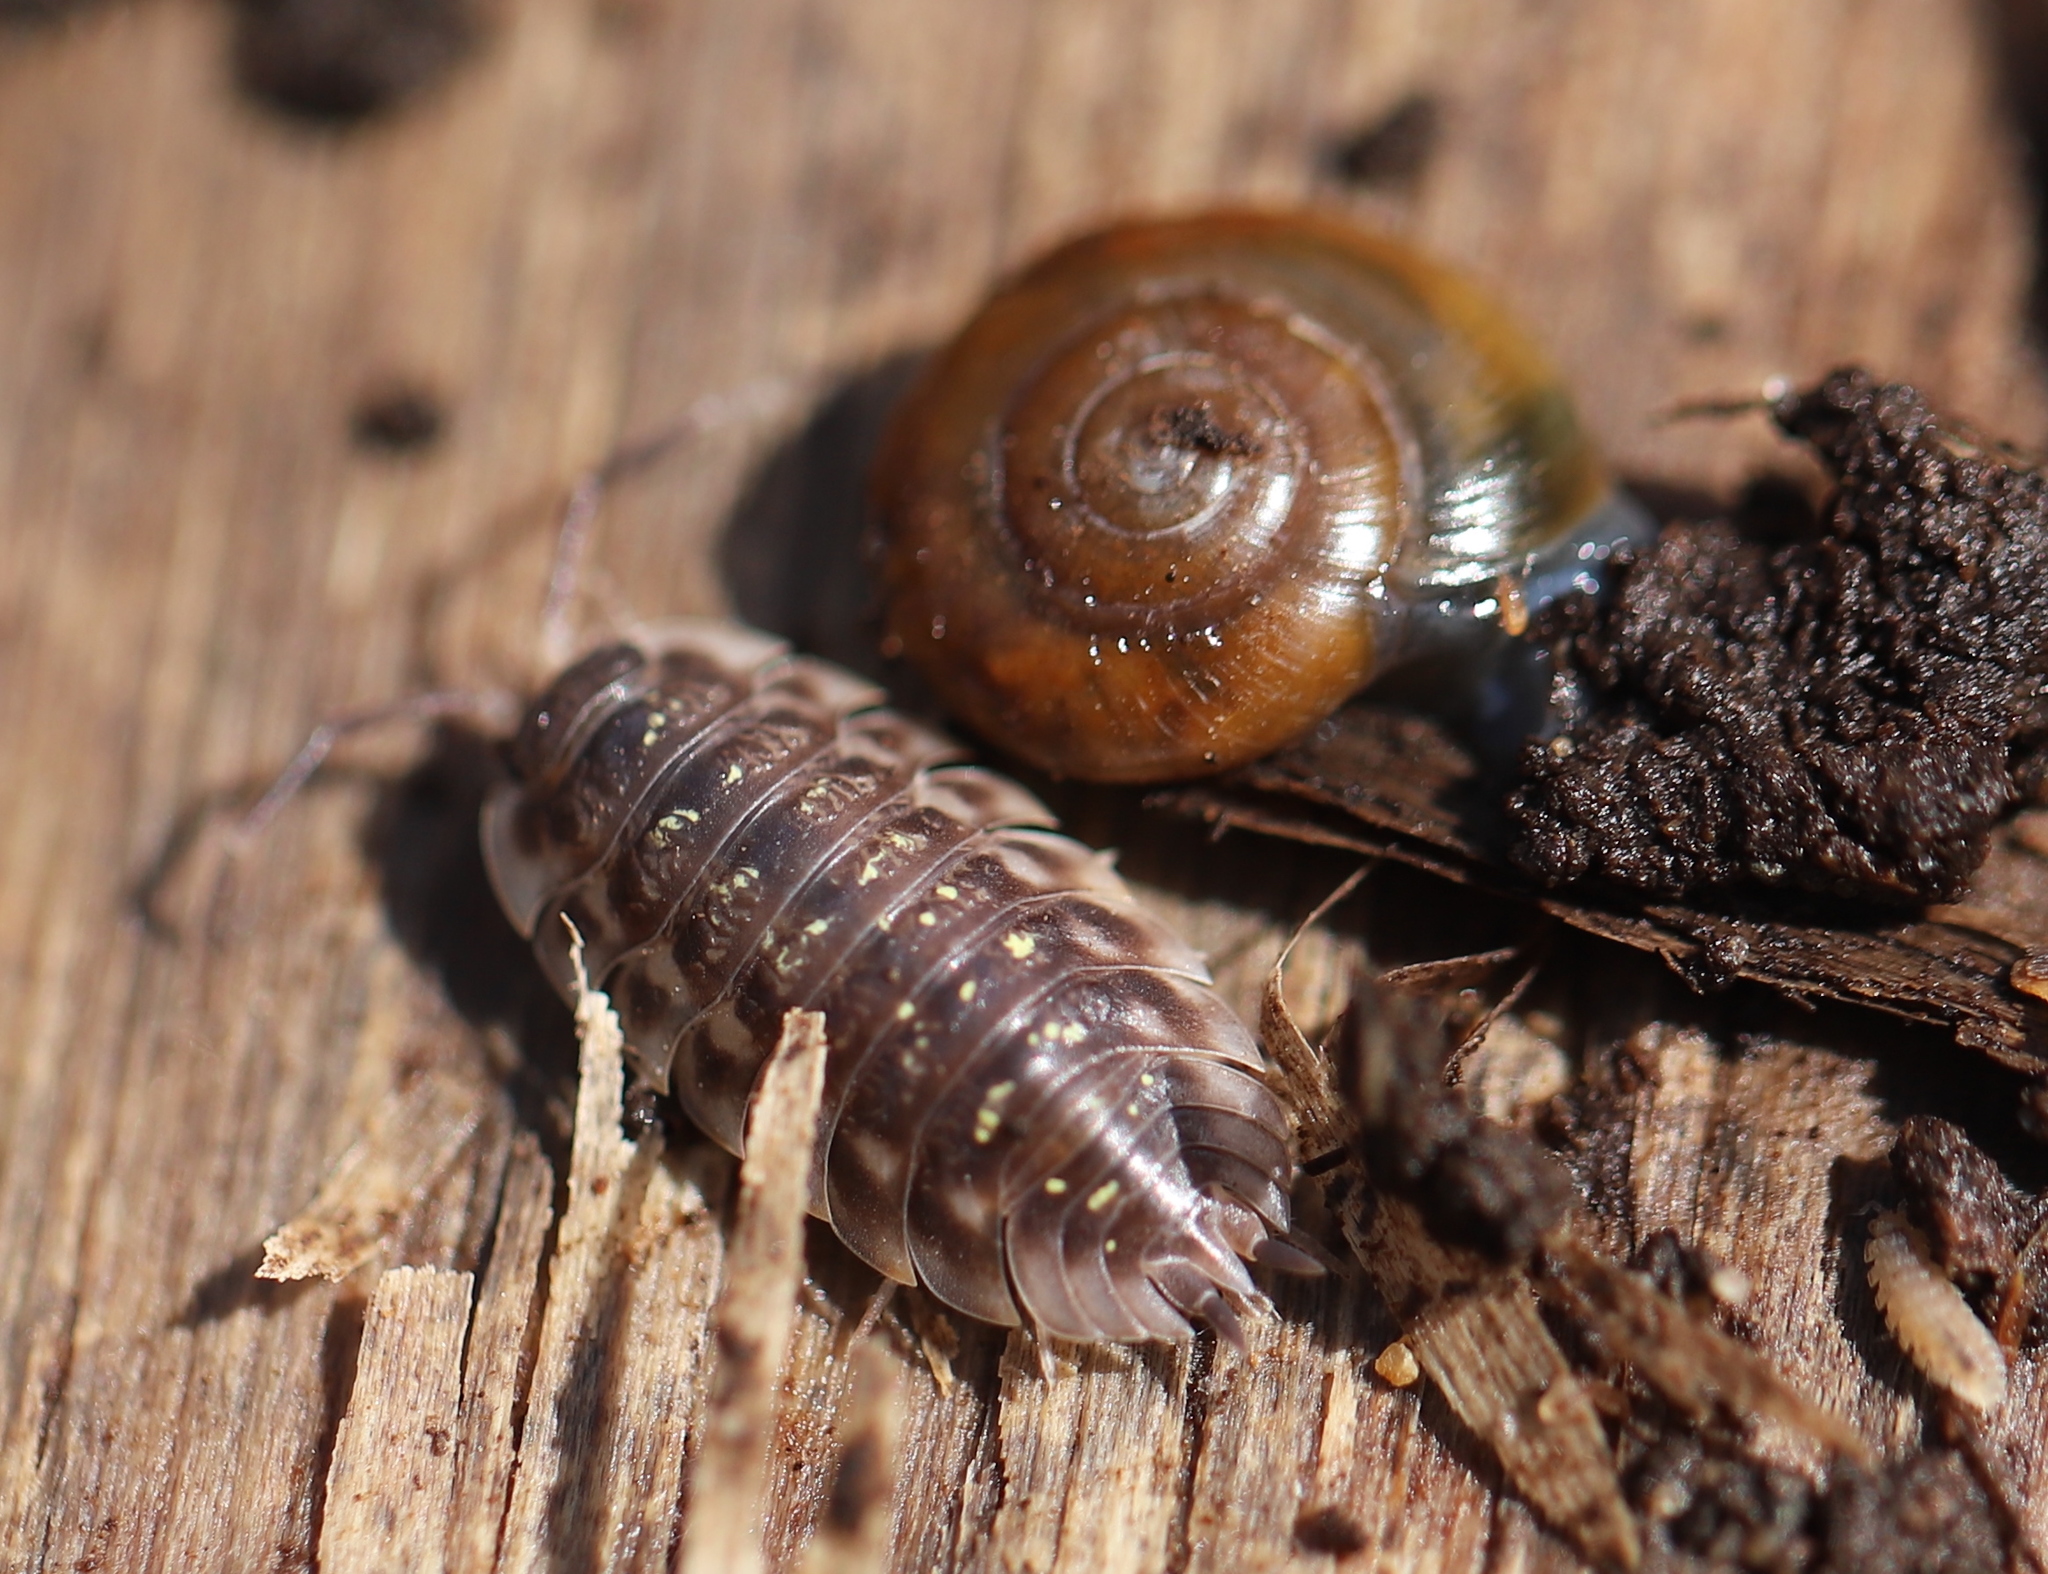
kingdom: Animalia
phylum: Arthropoda
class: Malacostraca
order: Isopoda
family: Oniscidae
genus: Oniscus
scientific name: Oniscus asellus
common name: Common shiny woodlouse
